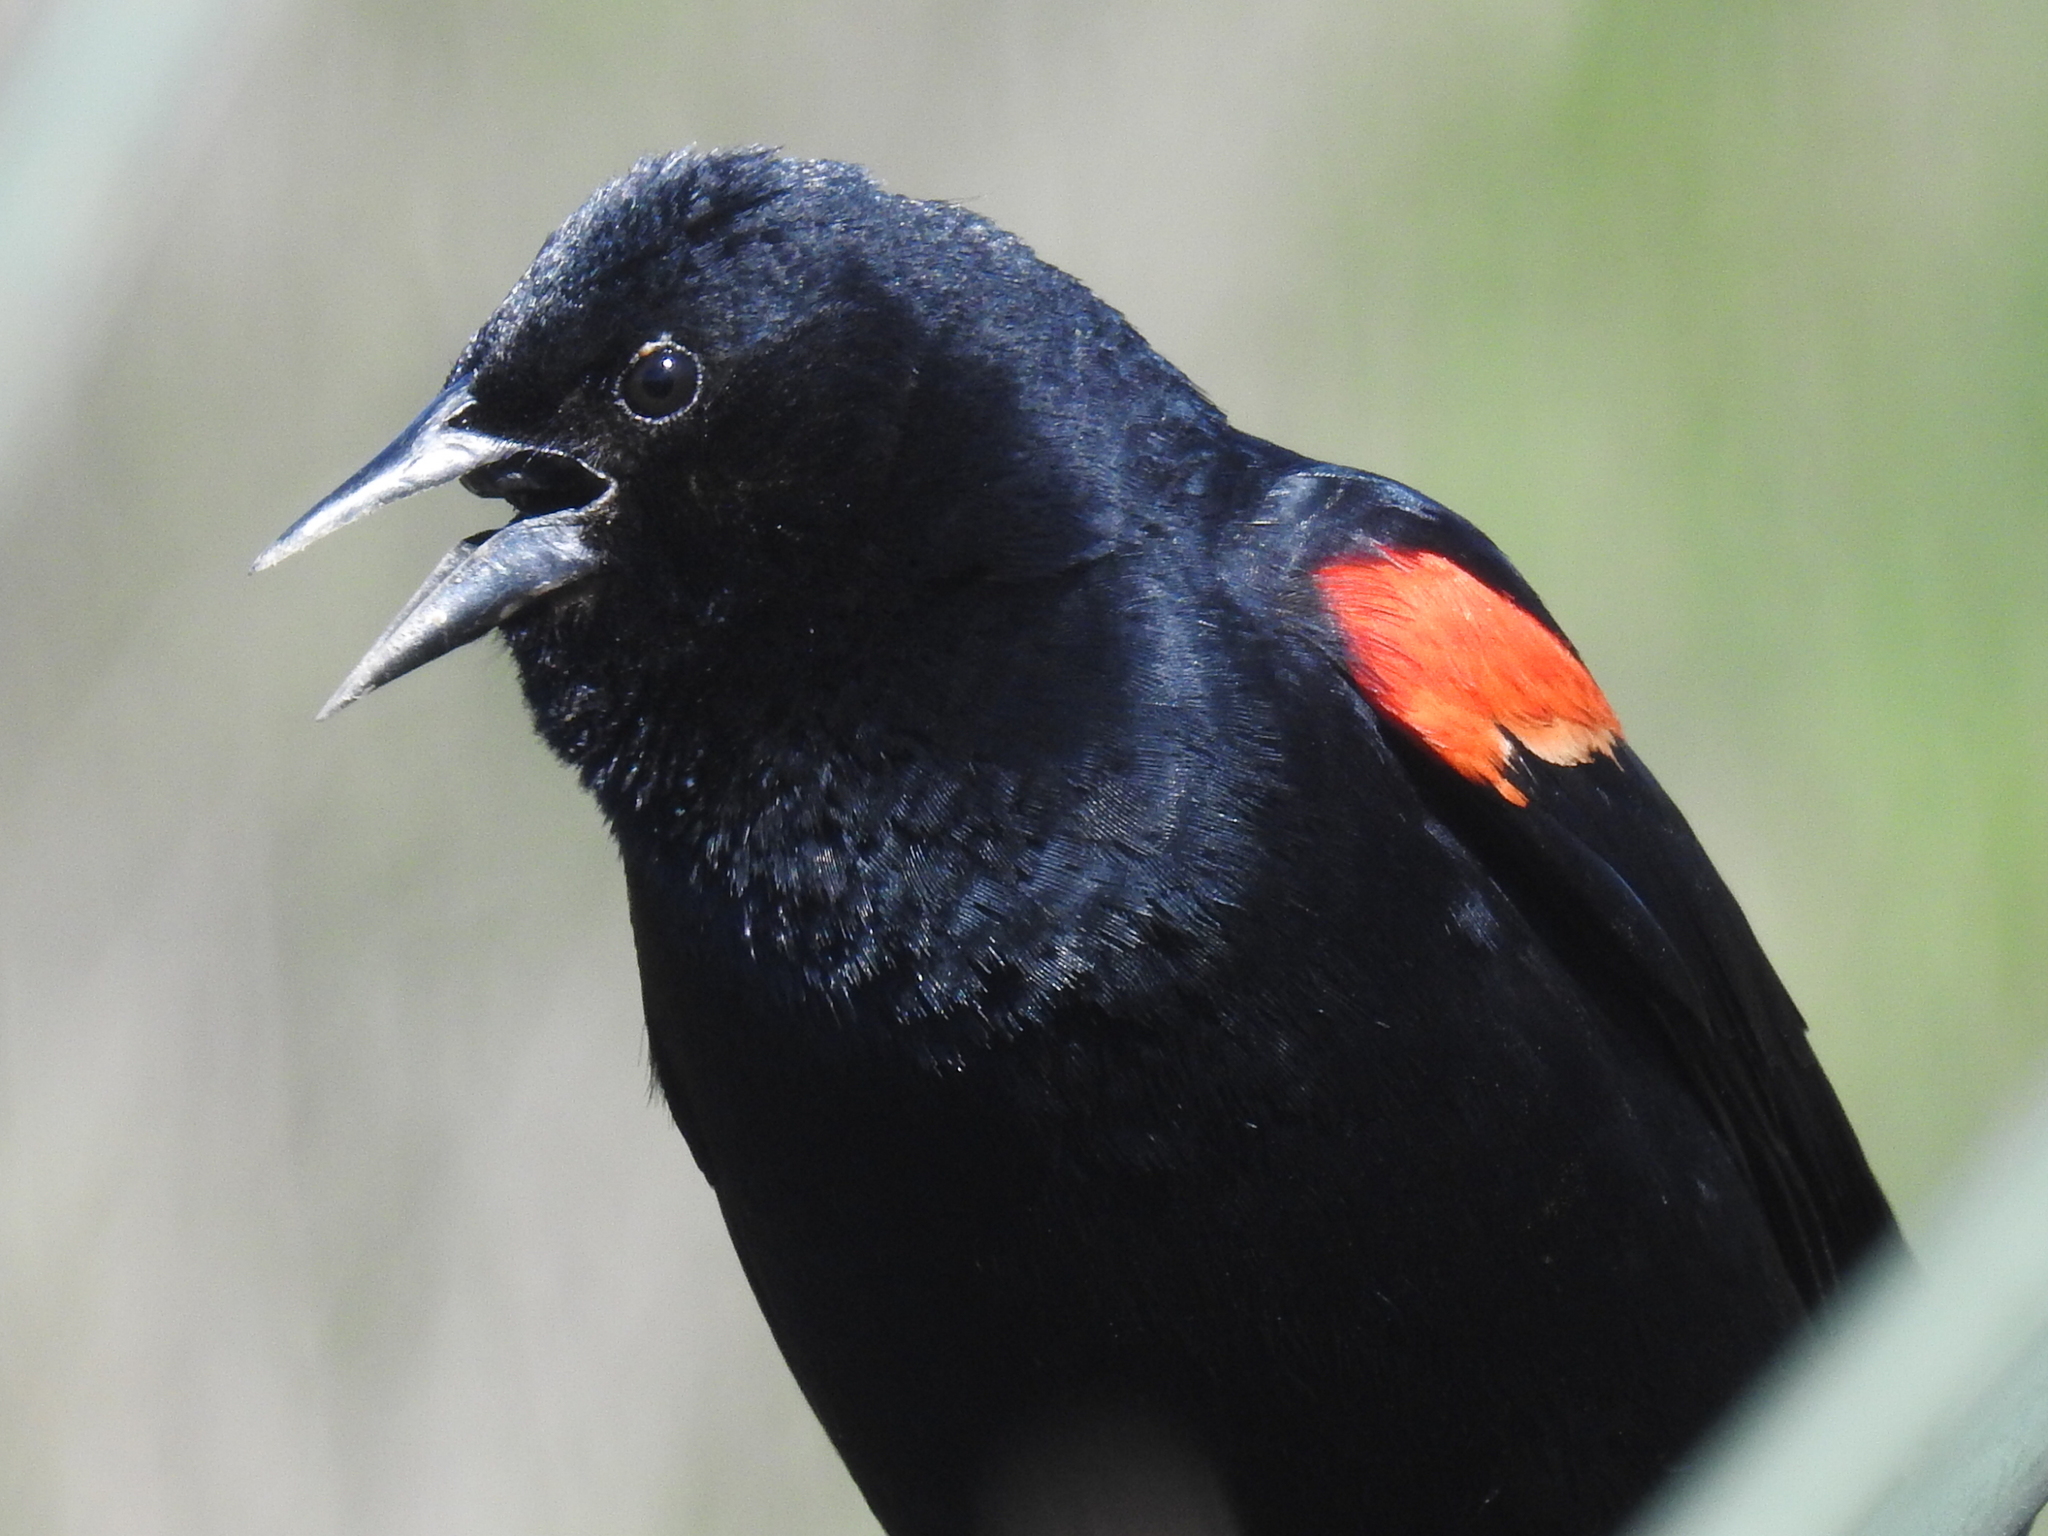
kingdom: Animalia
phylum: Chordata
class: Aves
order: Passeriformes
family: Icteridae
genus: Agelaius
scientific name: Agelaius phoeniceus
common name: Red-winged blackbird
